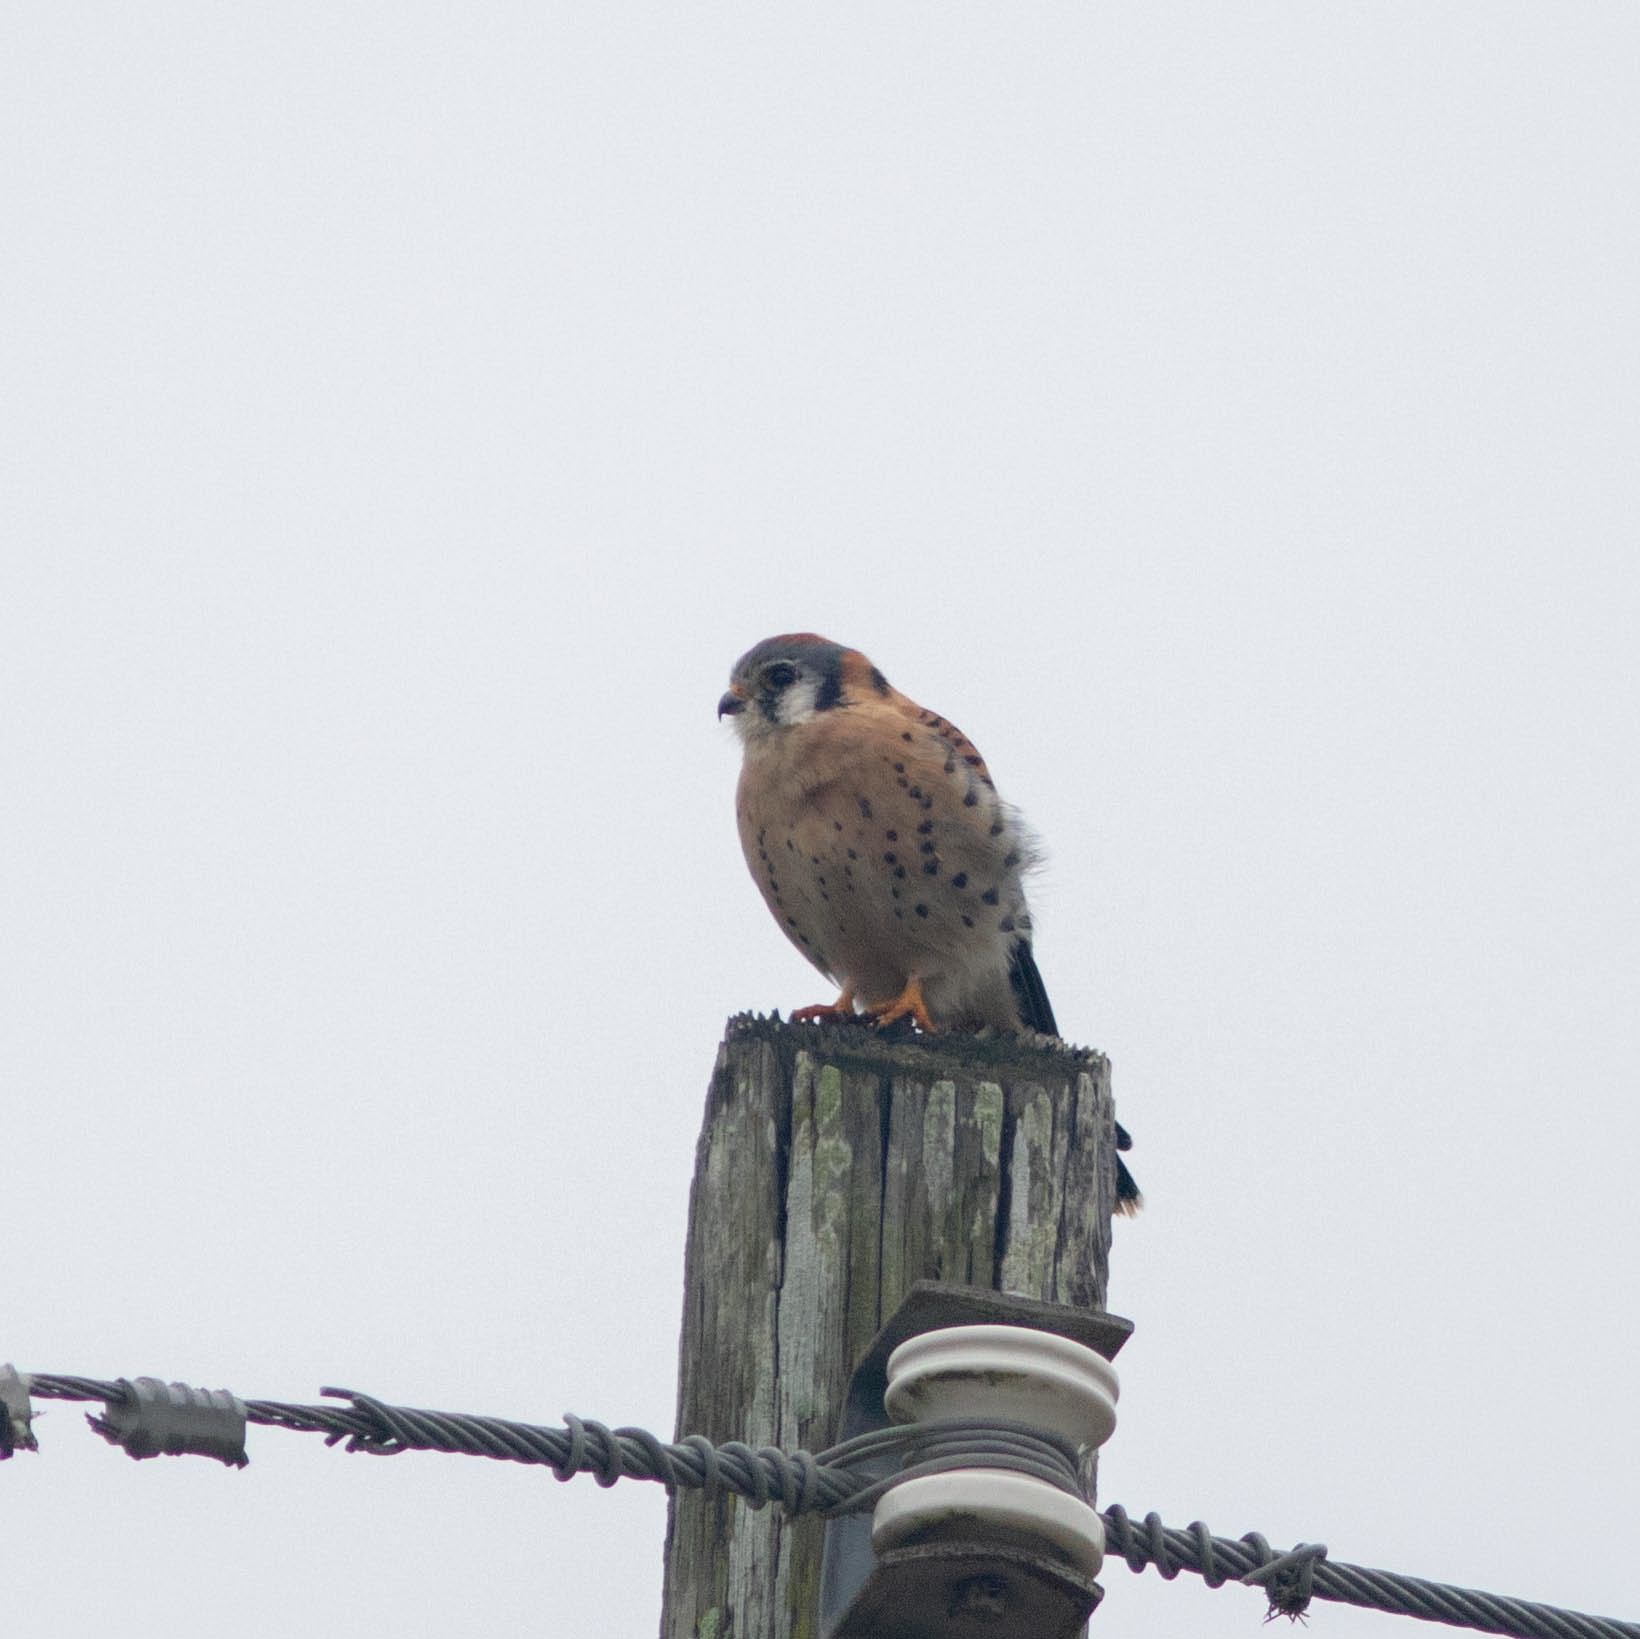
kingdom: Animalia
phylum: Chordata
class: Aves
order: Falconiformes
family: Falconidae
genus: Falco
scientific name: Falco sparverius
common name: American kestrel
